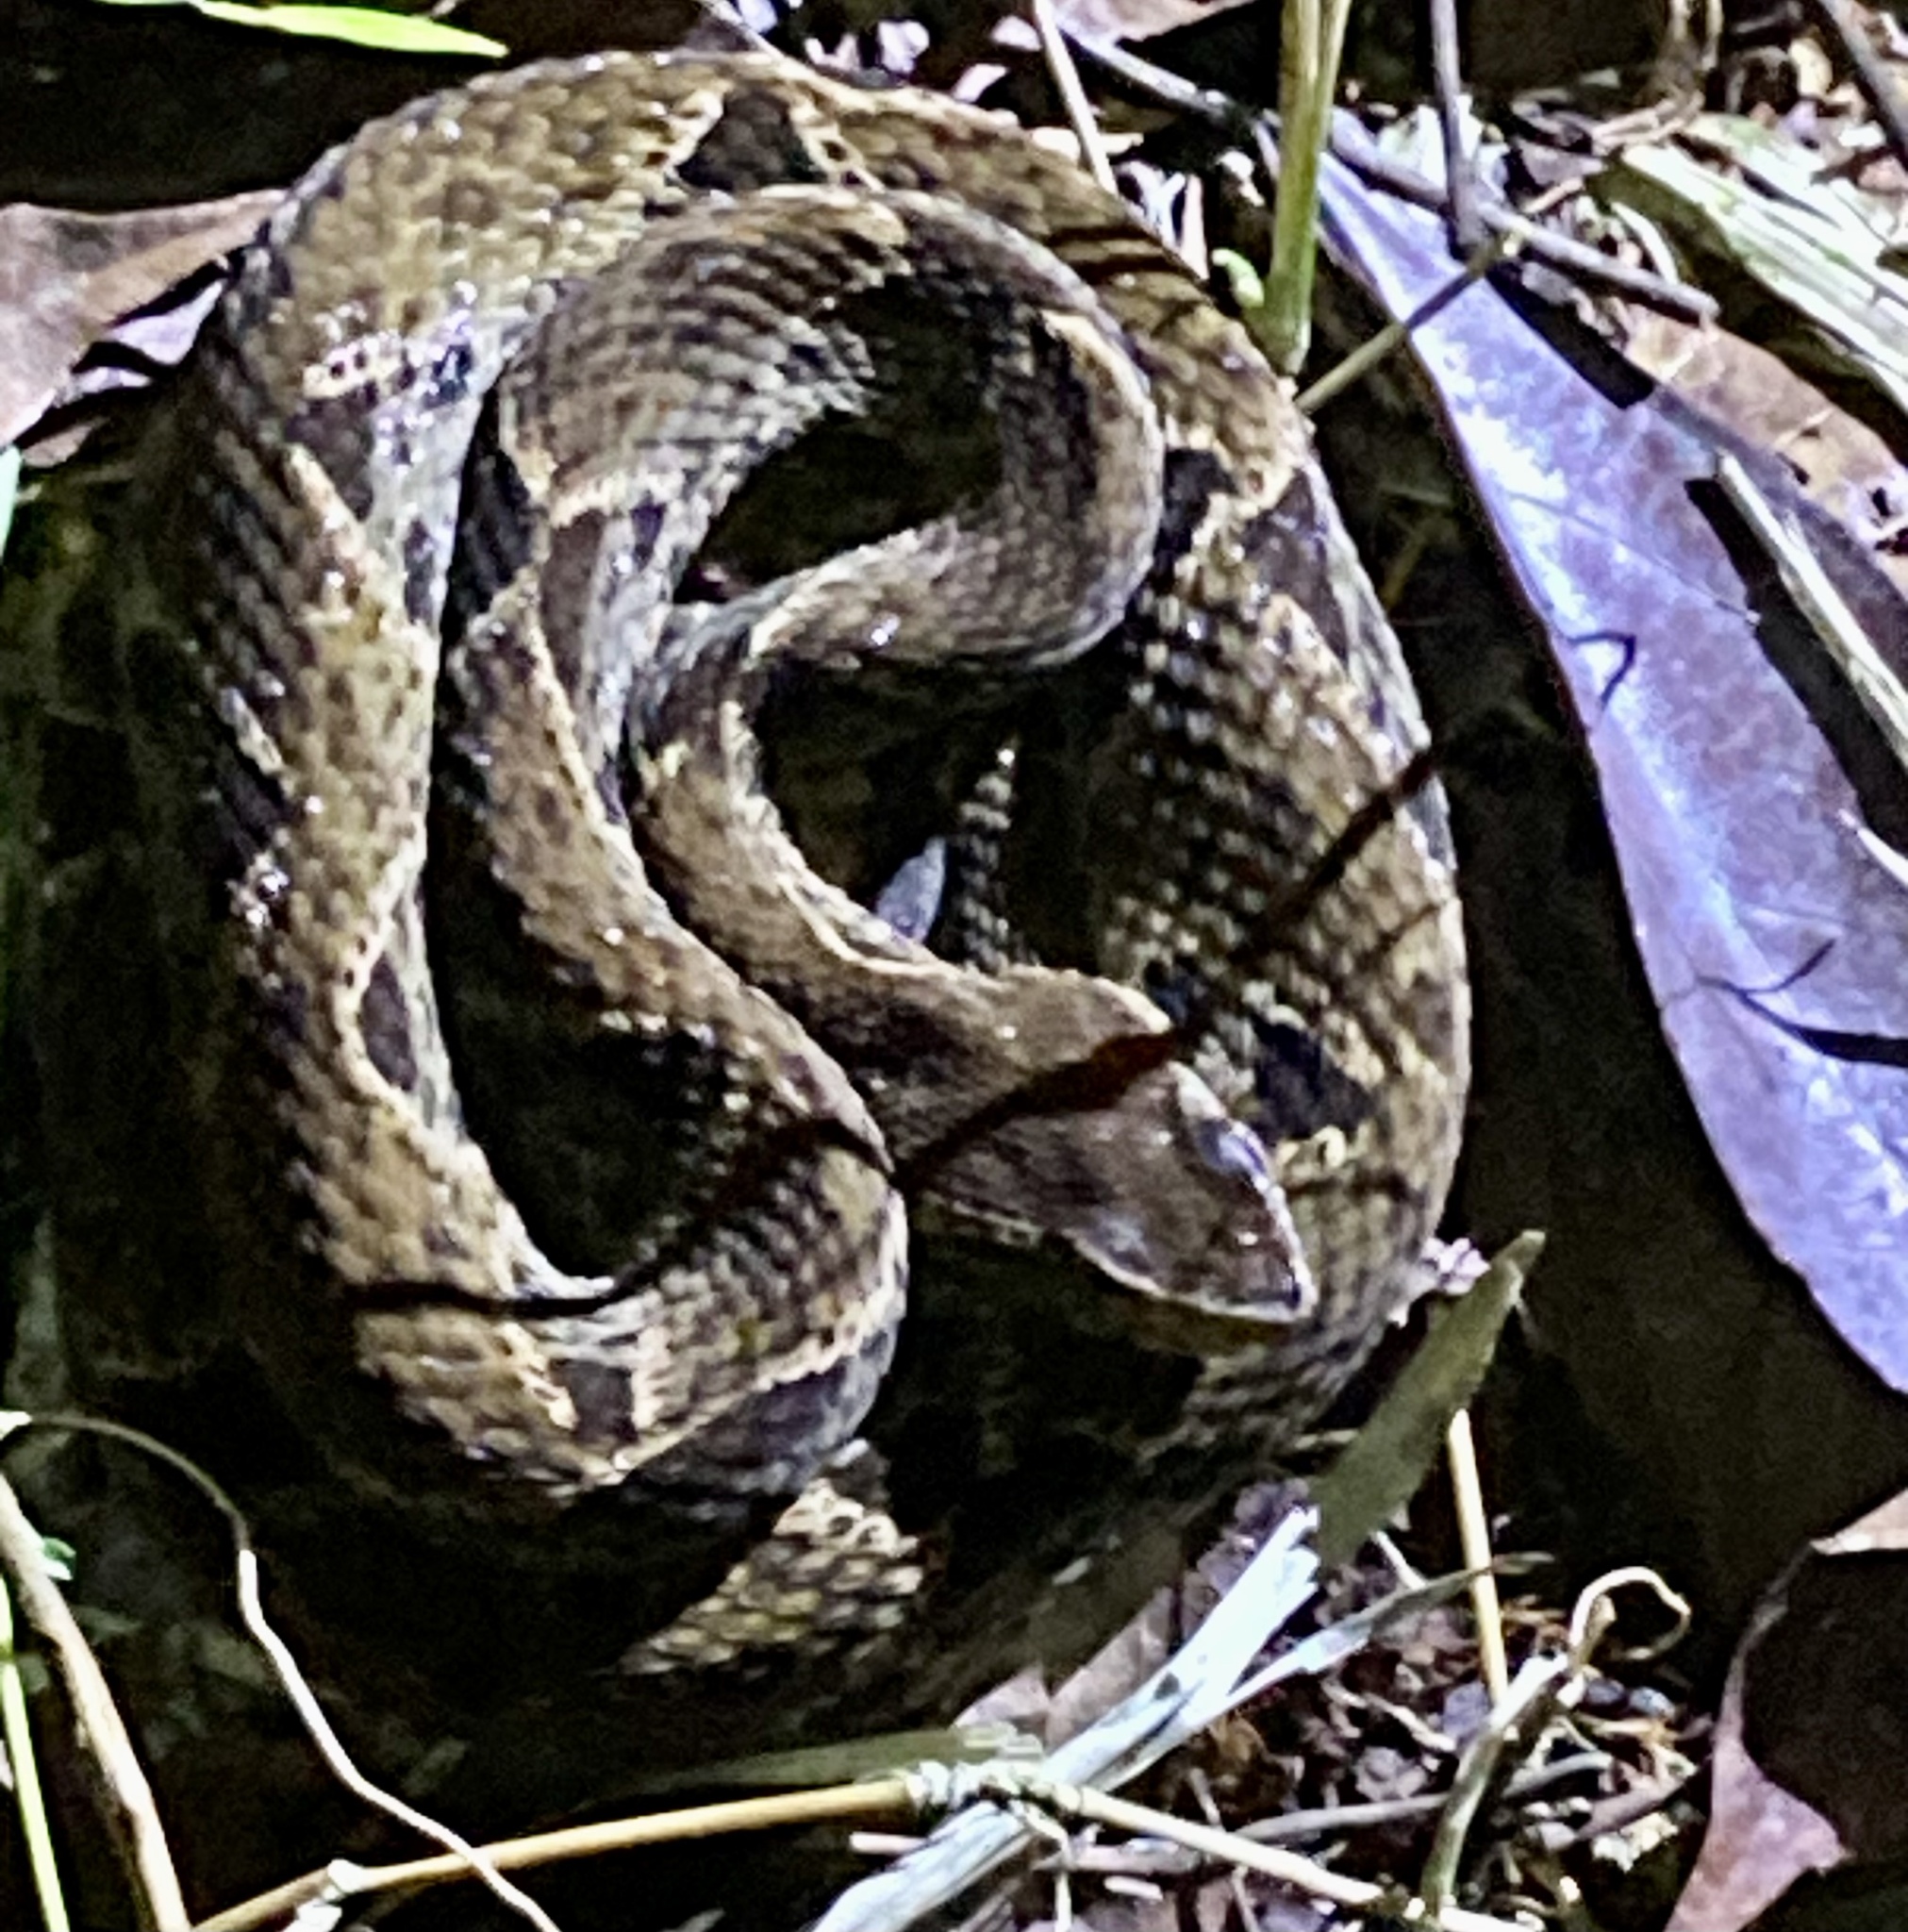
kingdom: Animalia
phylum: Chordata
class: Squamata
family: Viperidae
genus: Bothrops
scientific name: Bothrops asper
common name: Terciopelo
